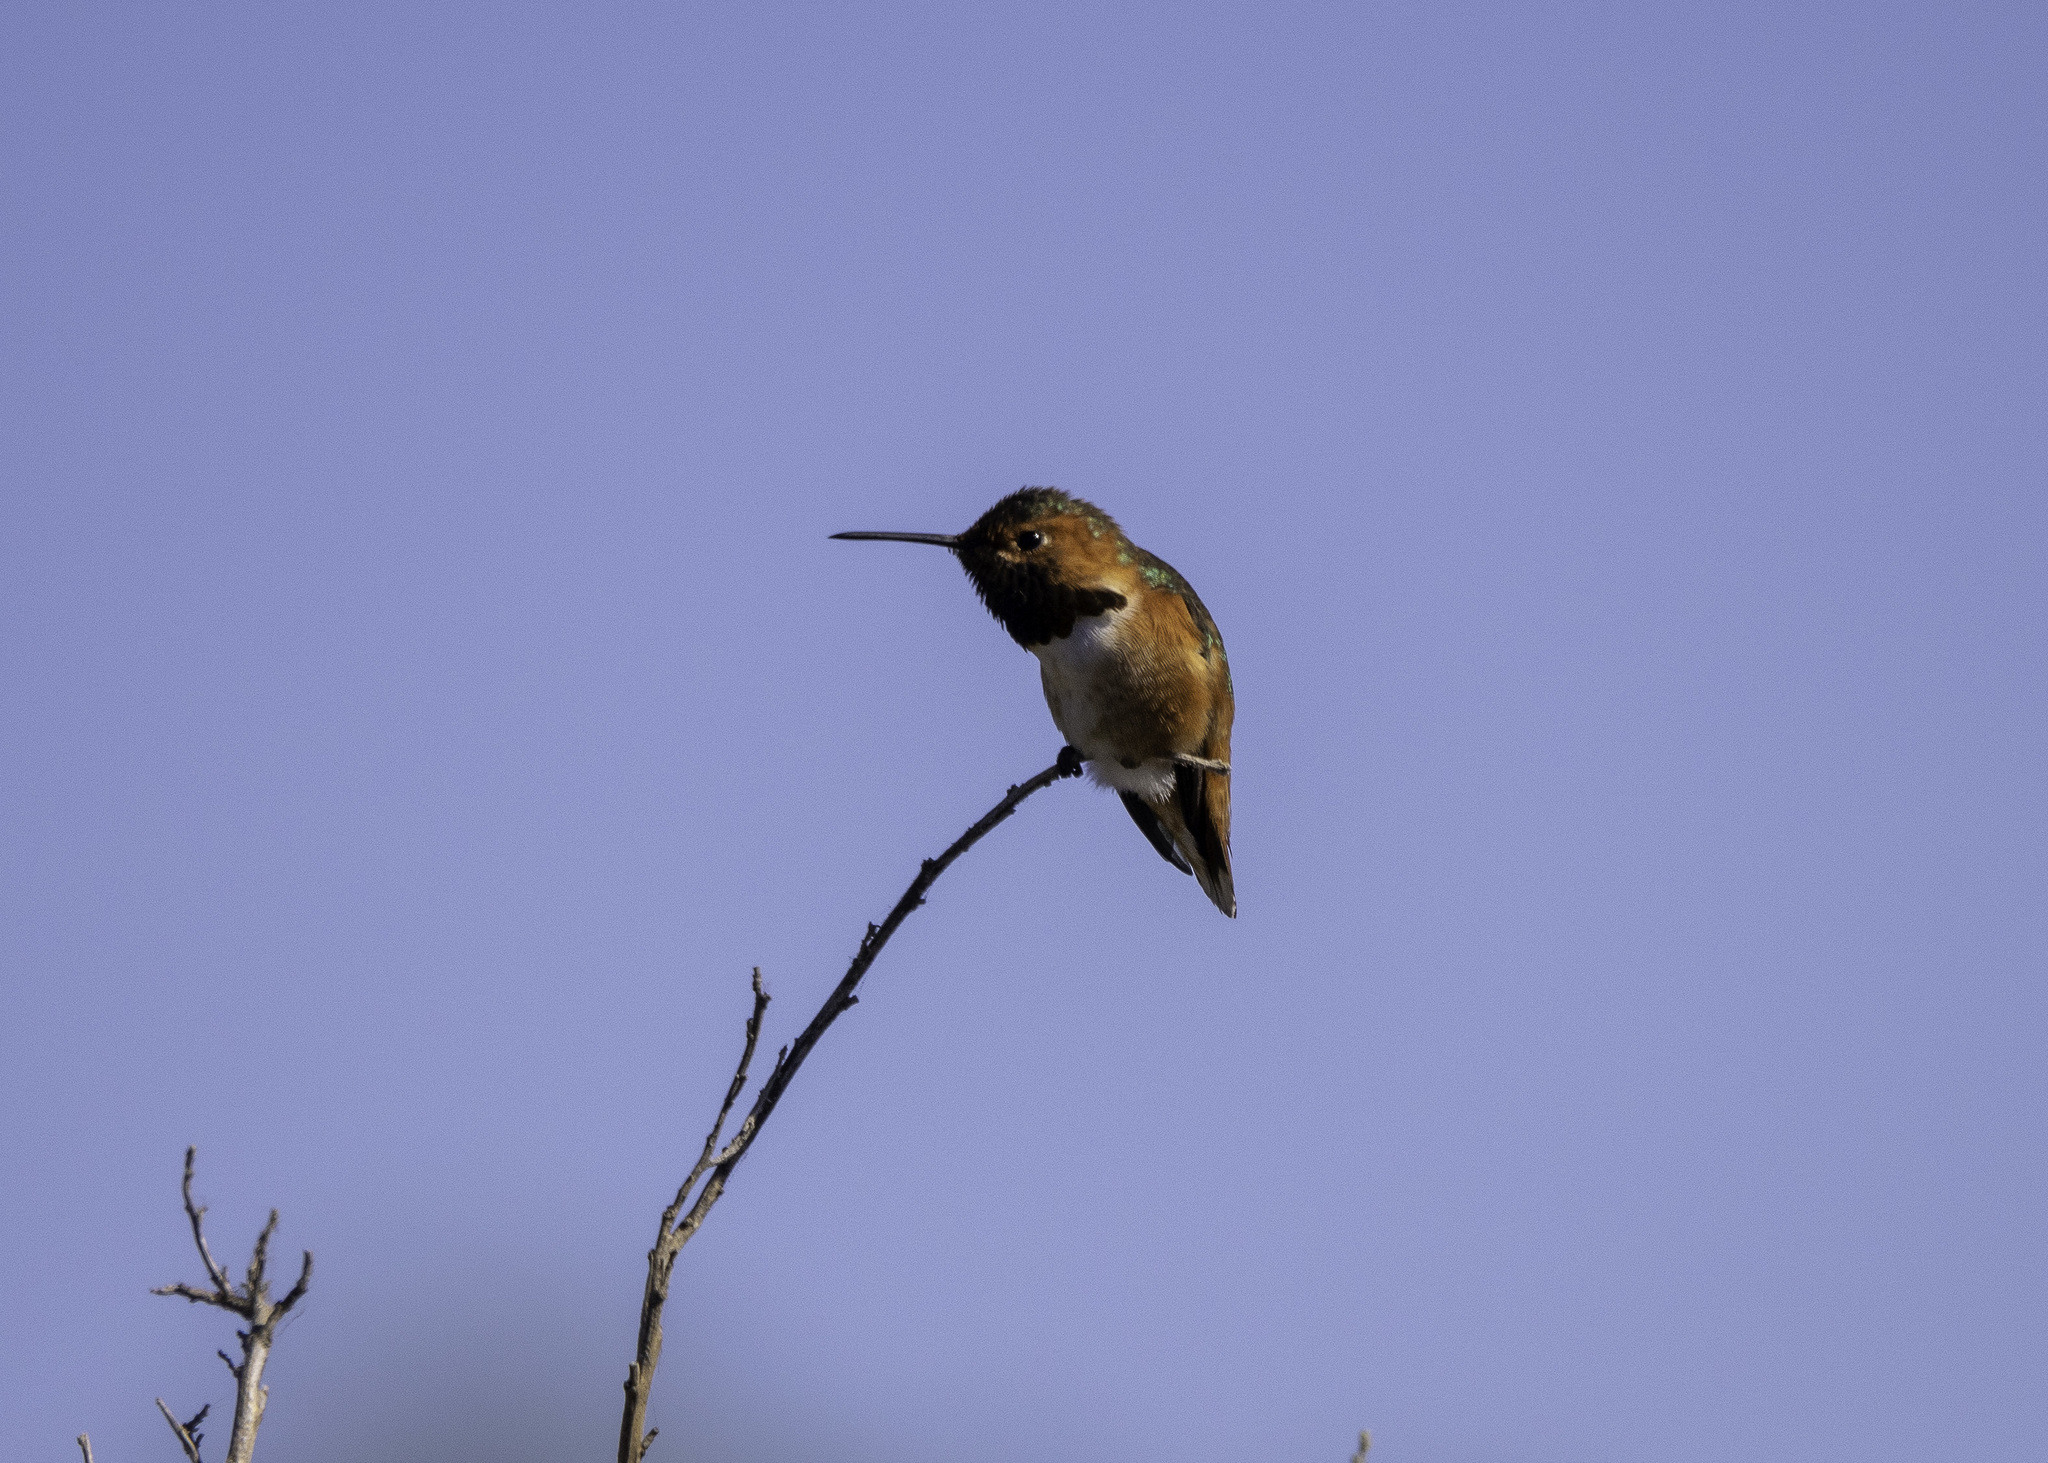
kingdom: Animalia
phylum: Chordata
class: Aves
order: Apodiformes
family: Trochilidae
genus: Selasphorus
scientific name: Selasphorus sasin
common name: Allen's hummingbird
